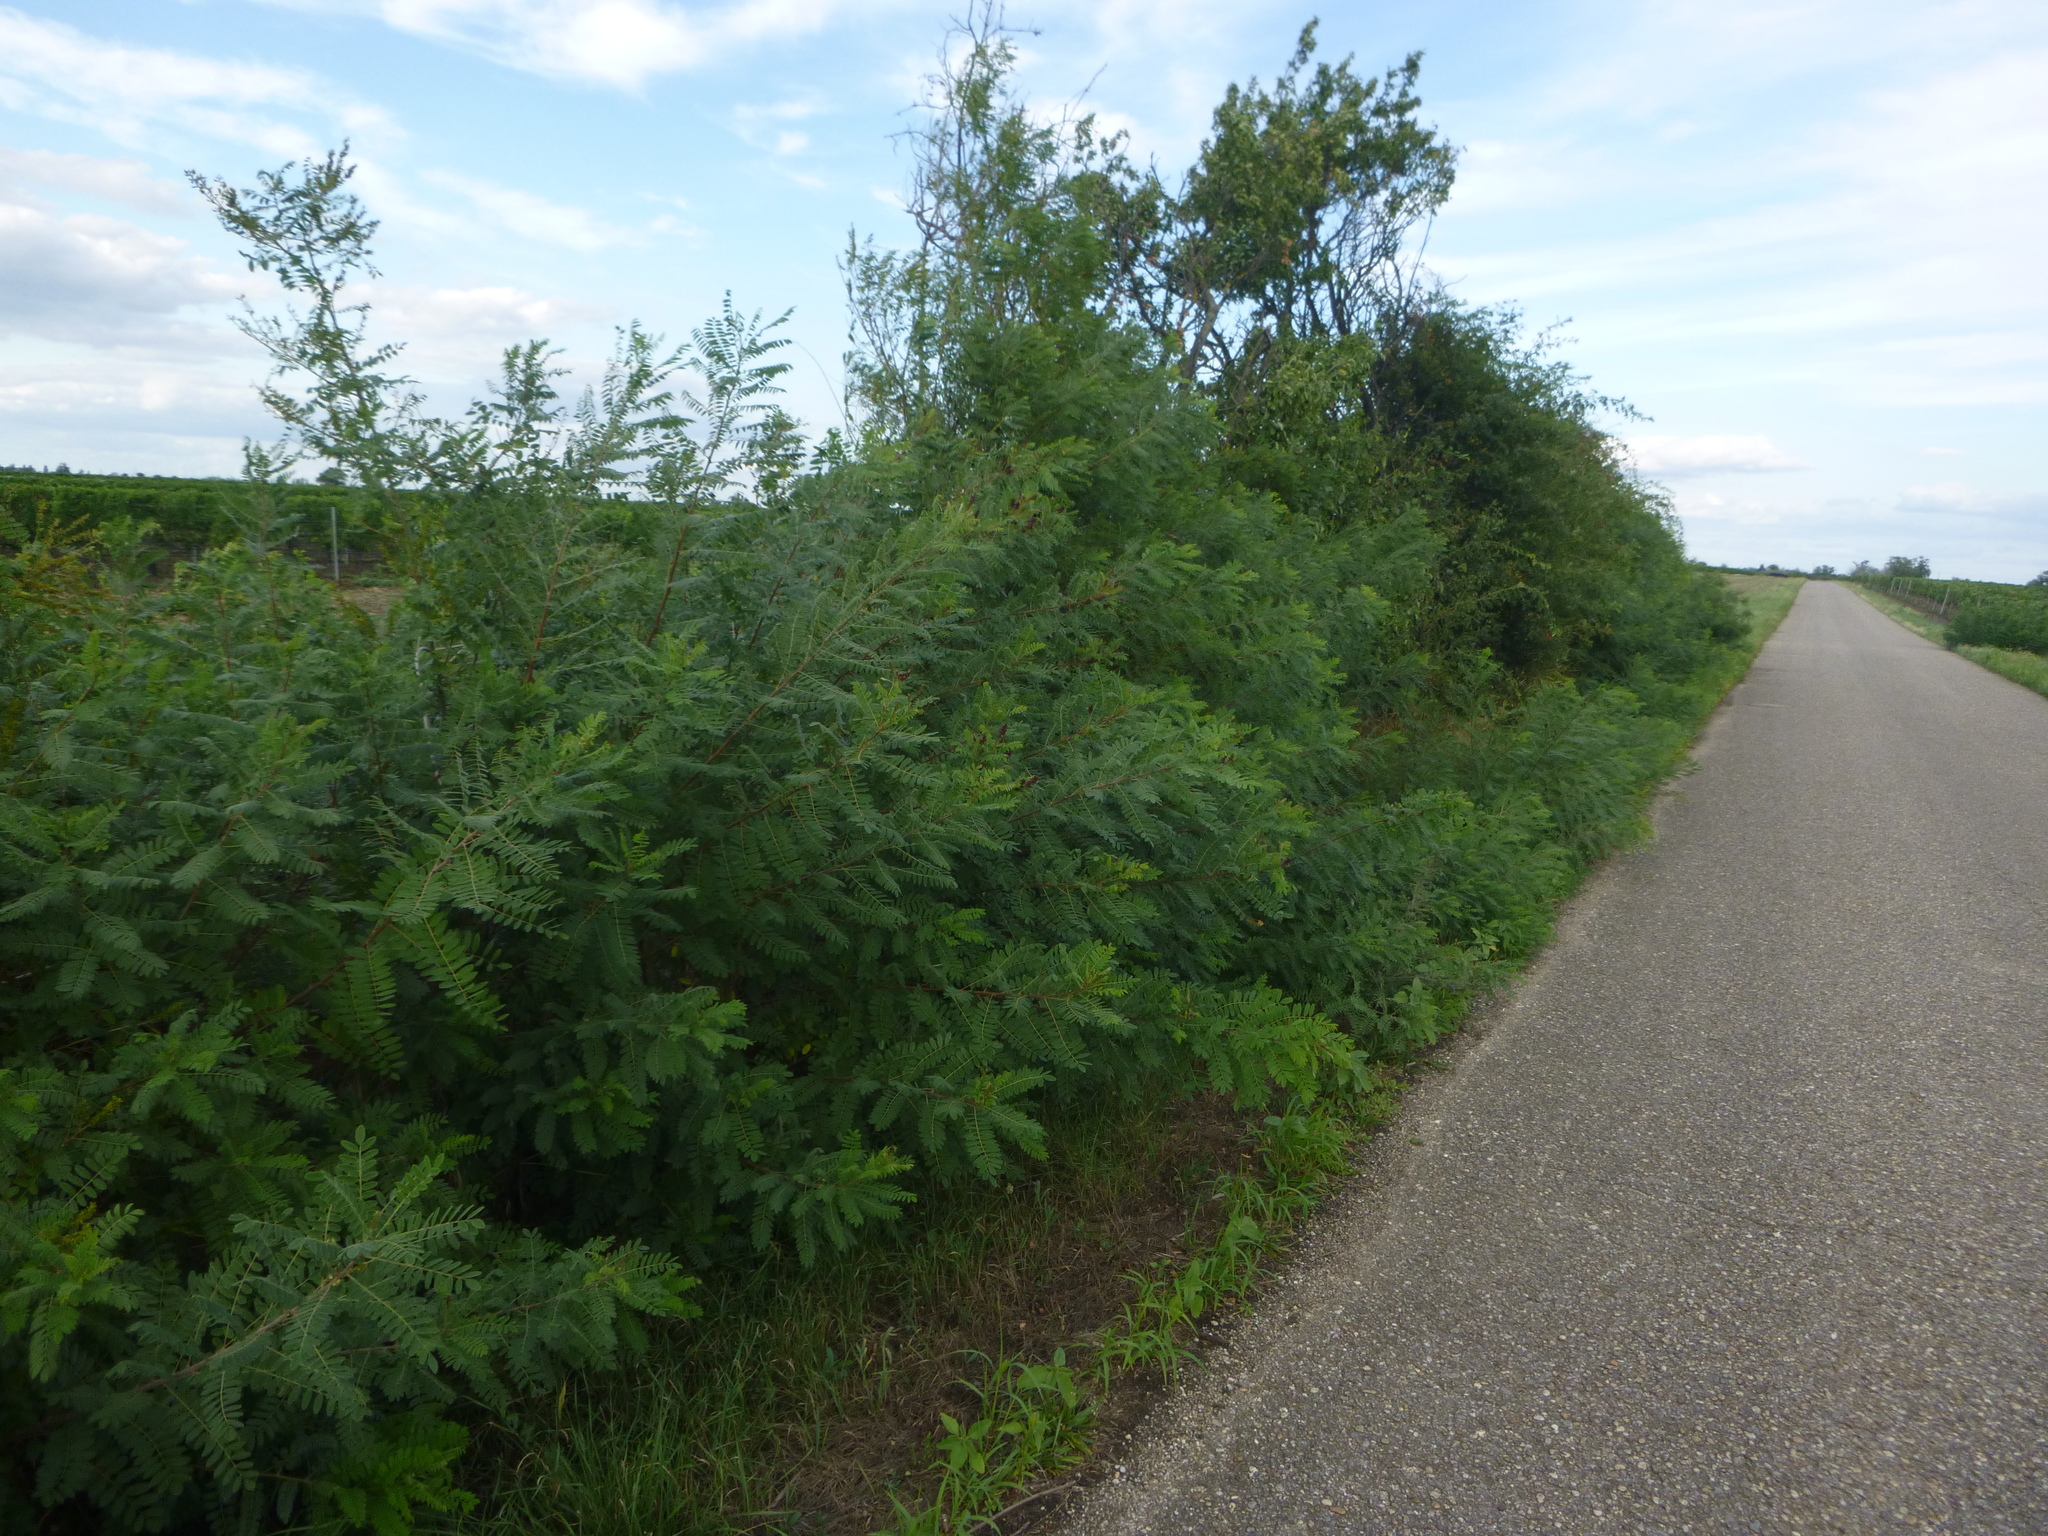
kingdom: Plantae
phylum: Tracheophyta
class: Magnoliopsida
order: Fabales
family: Fabaceae
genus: Amorpha
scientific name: Amorpha fruticosa
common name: False indigo
